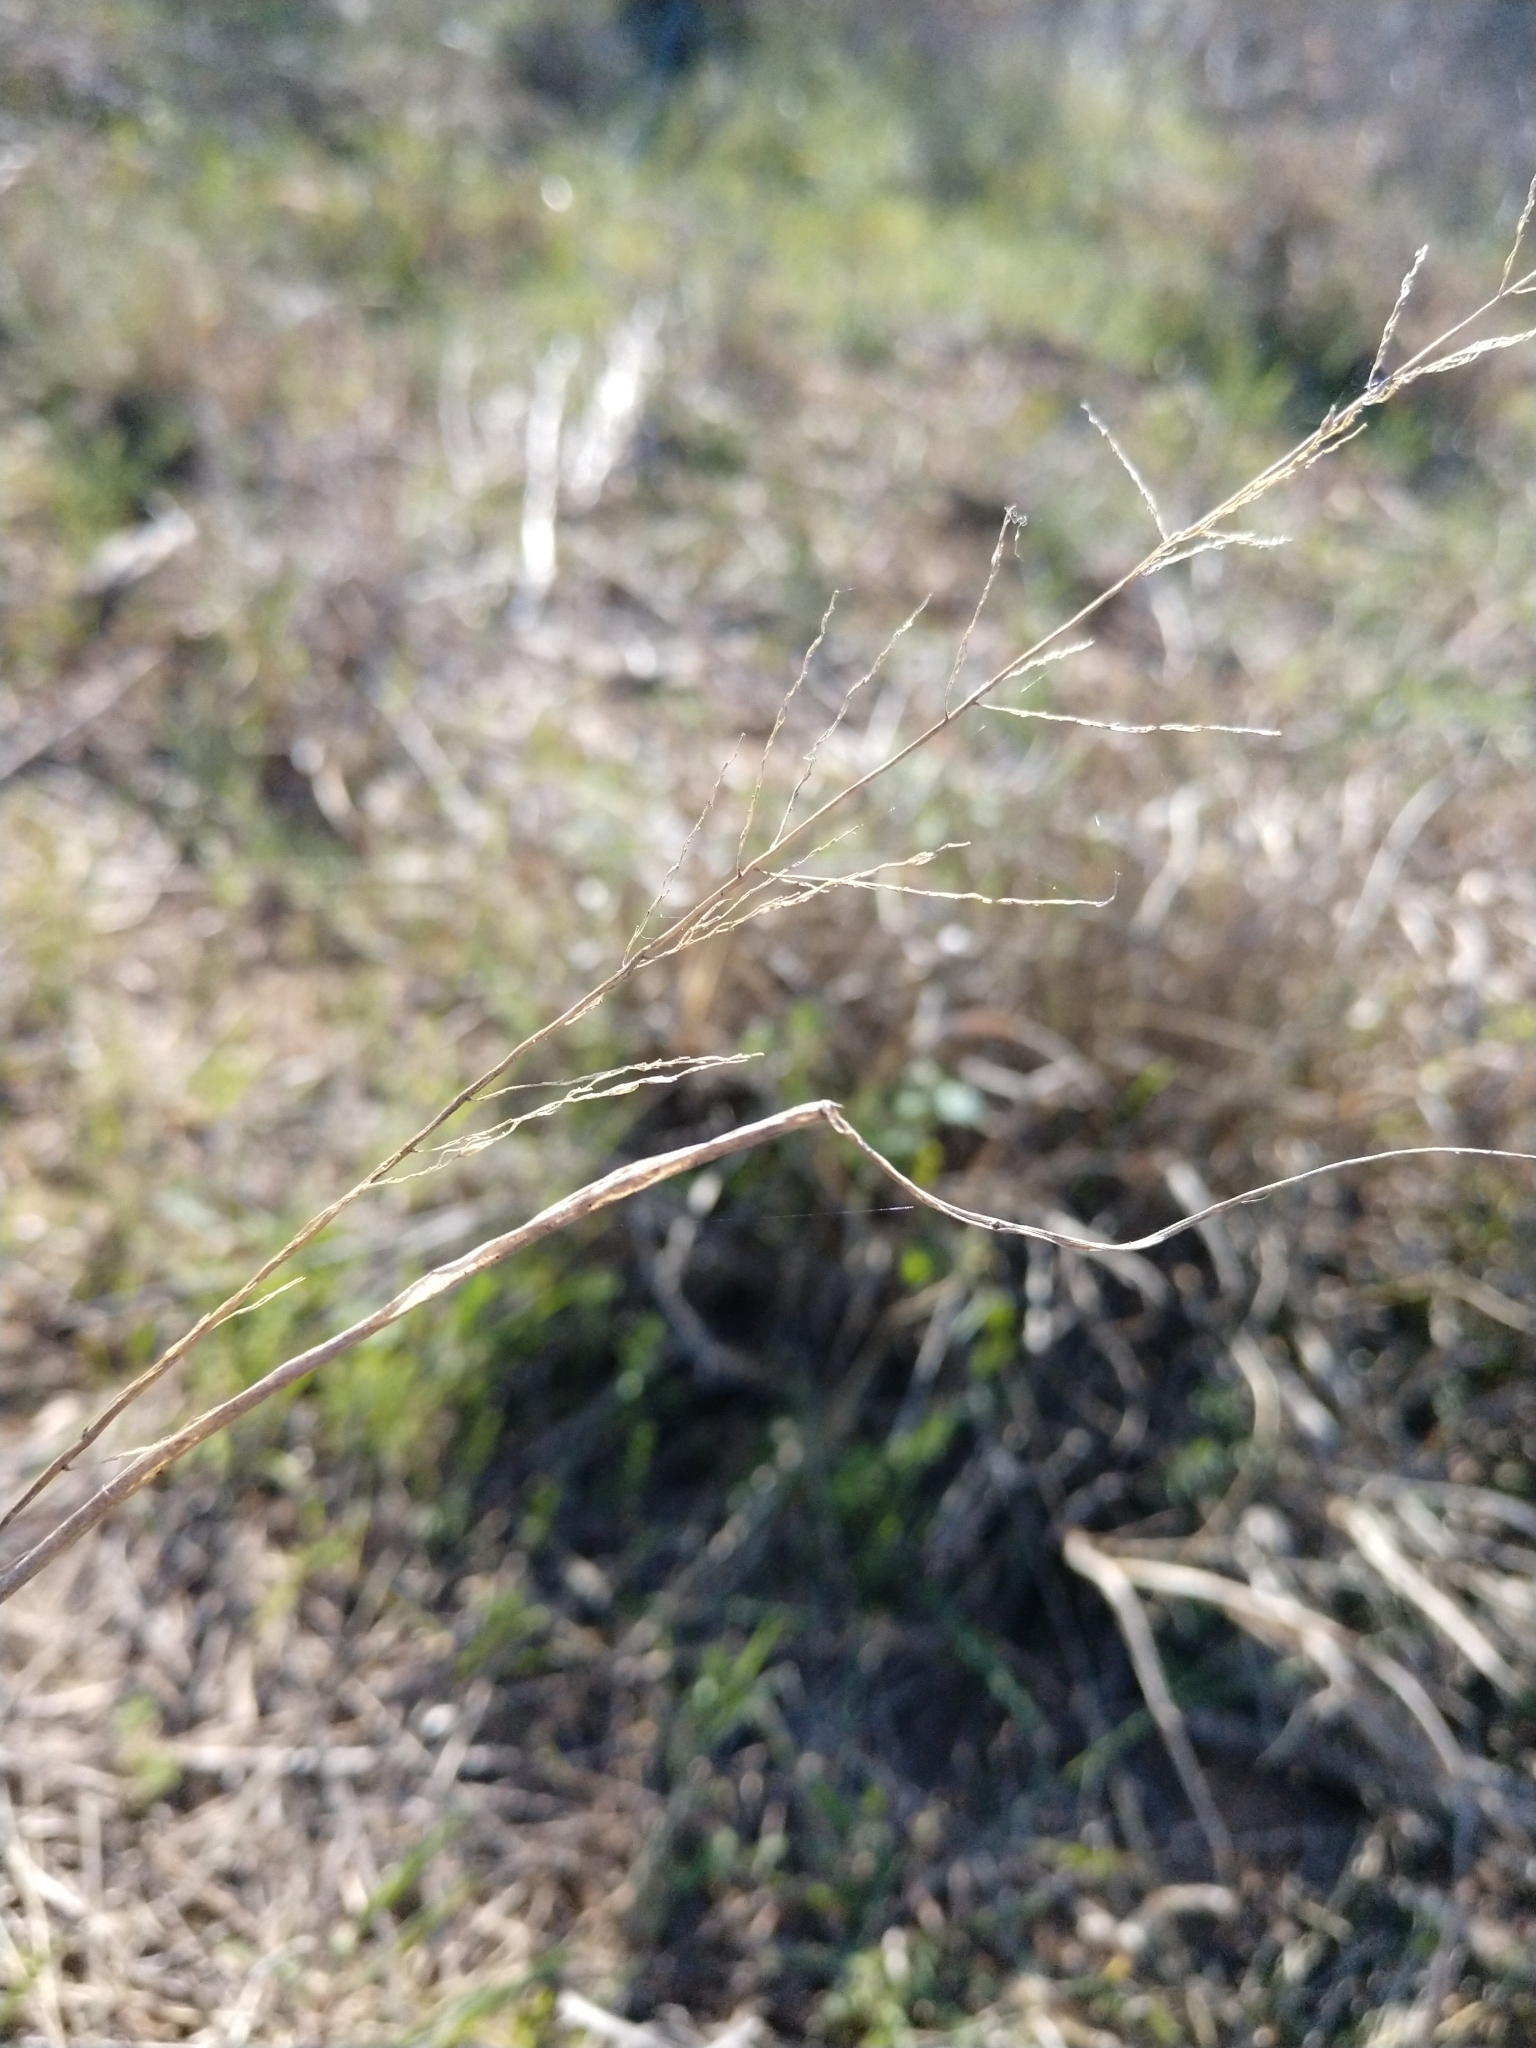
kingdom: Plantae
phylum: Tracheophyta
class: Liliopsida
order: Poales
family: Poaceae
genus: Sporobolus
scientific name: Sporobolus cryptandrus
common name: Sand dropseed
